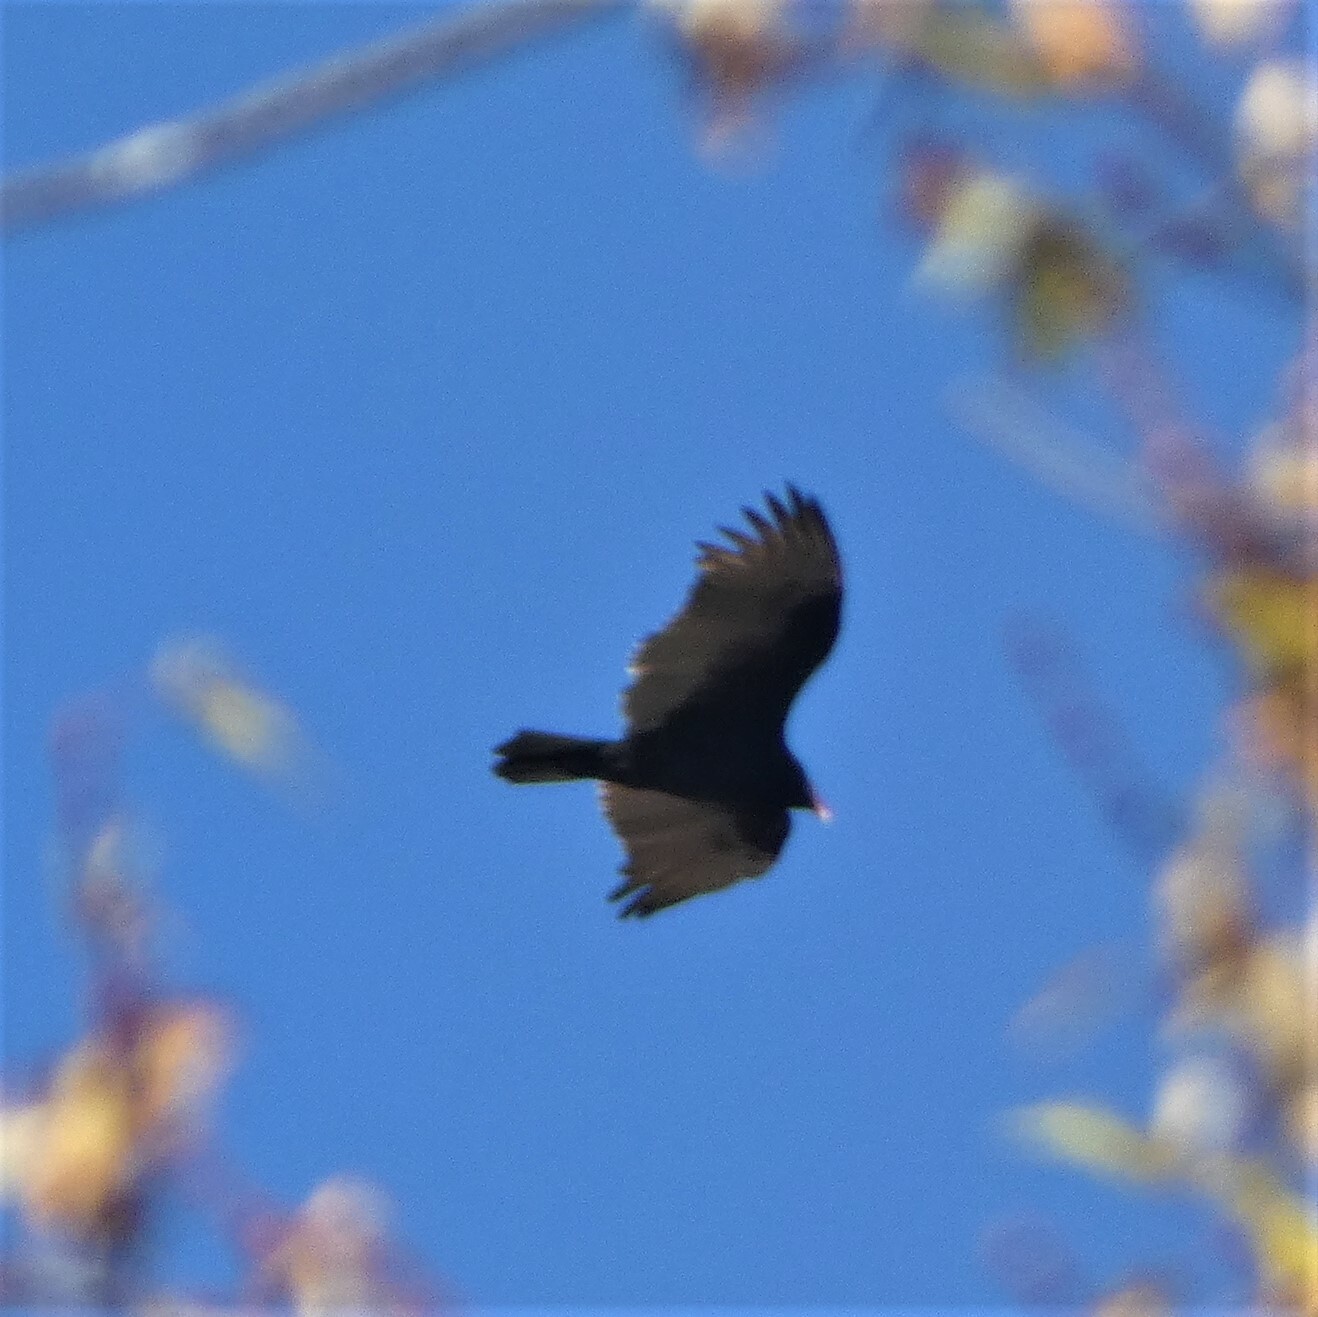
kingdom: Animalia
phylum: Chordata
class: Aves
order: Accipitriformes
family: Cathartidae
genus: Cathartes
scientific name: Cathartes aura
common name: Turkey vulture
